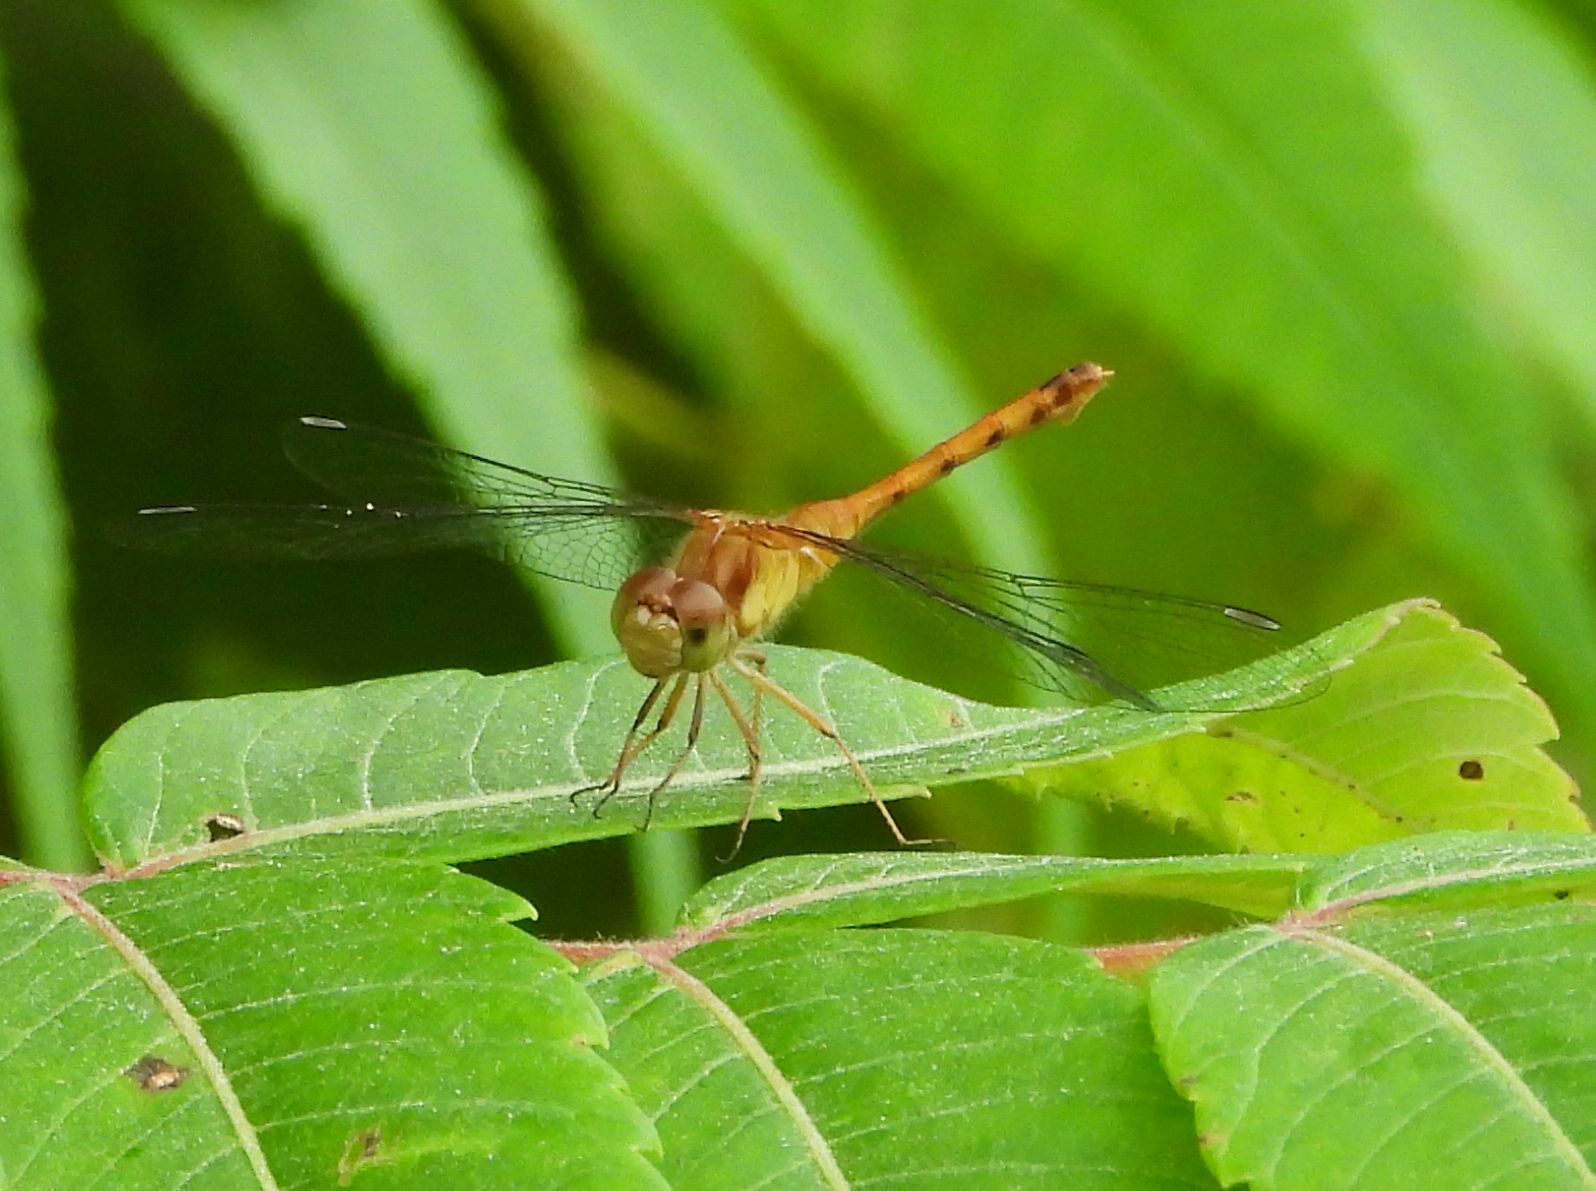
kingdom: Animalia
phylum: Arthropoda
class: Insecta
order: Odonata
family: Libellulidae
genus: Sympetrum
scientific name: Sympetrum vicinum
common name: Autumn meadowhawk
